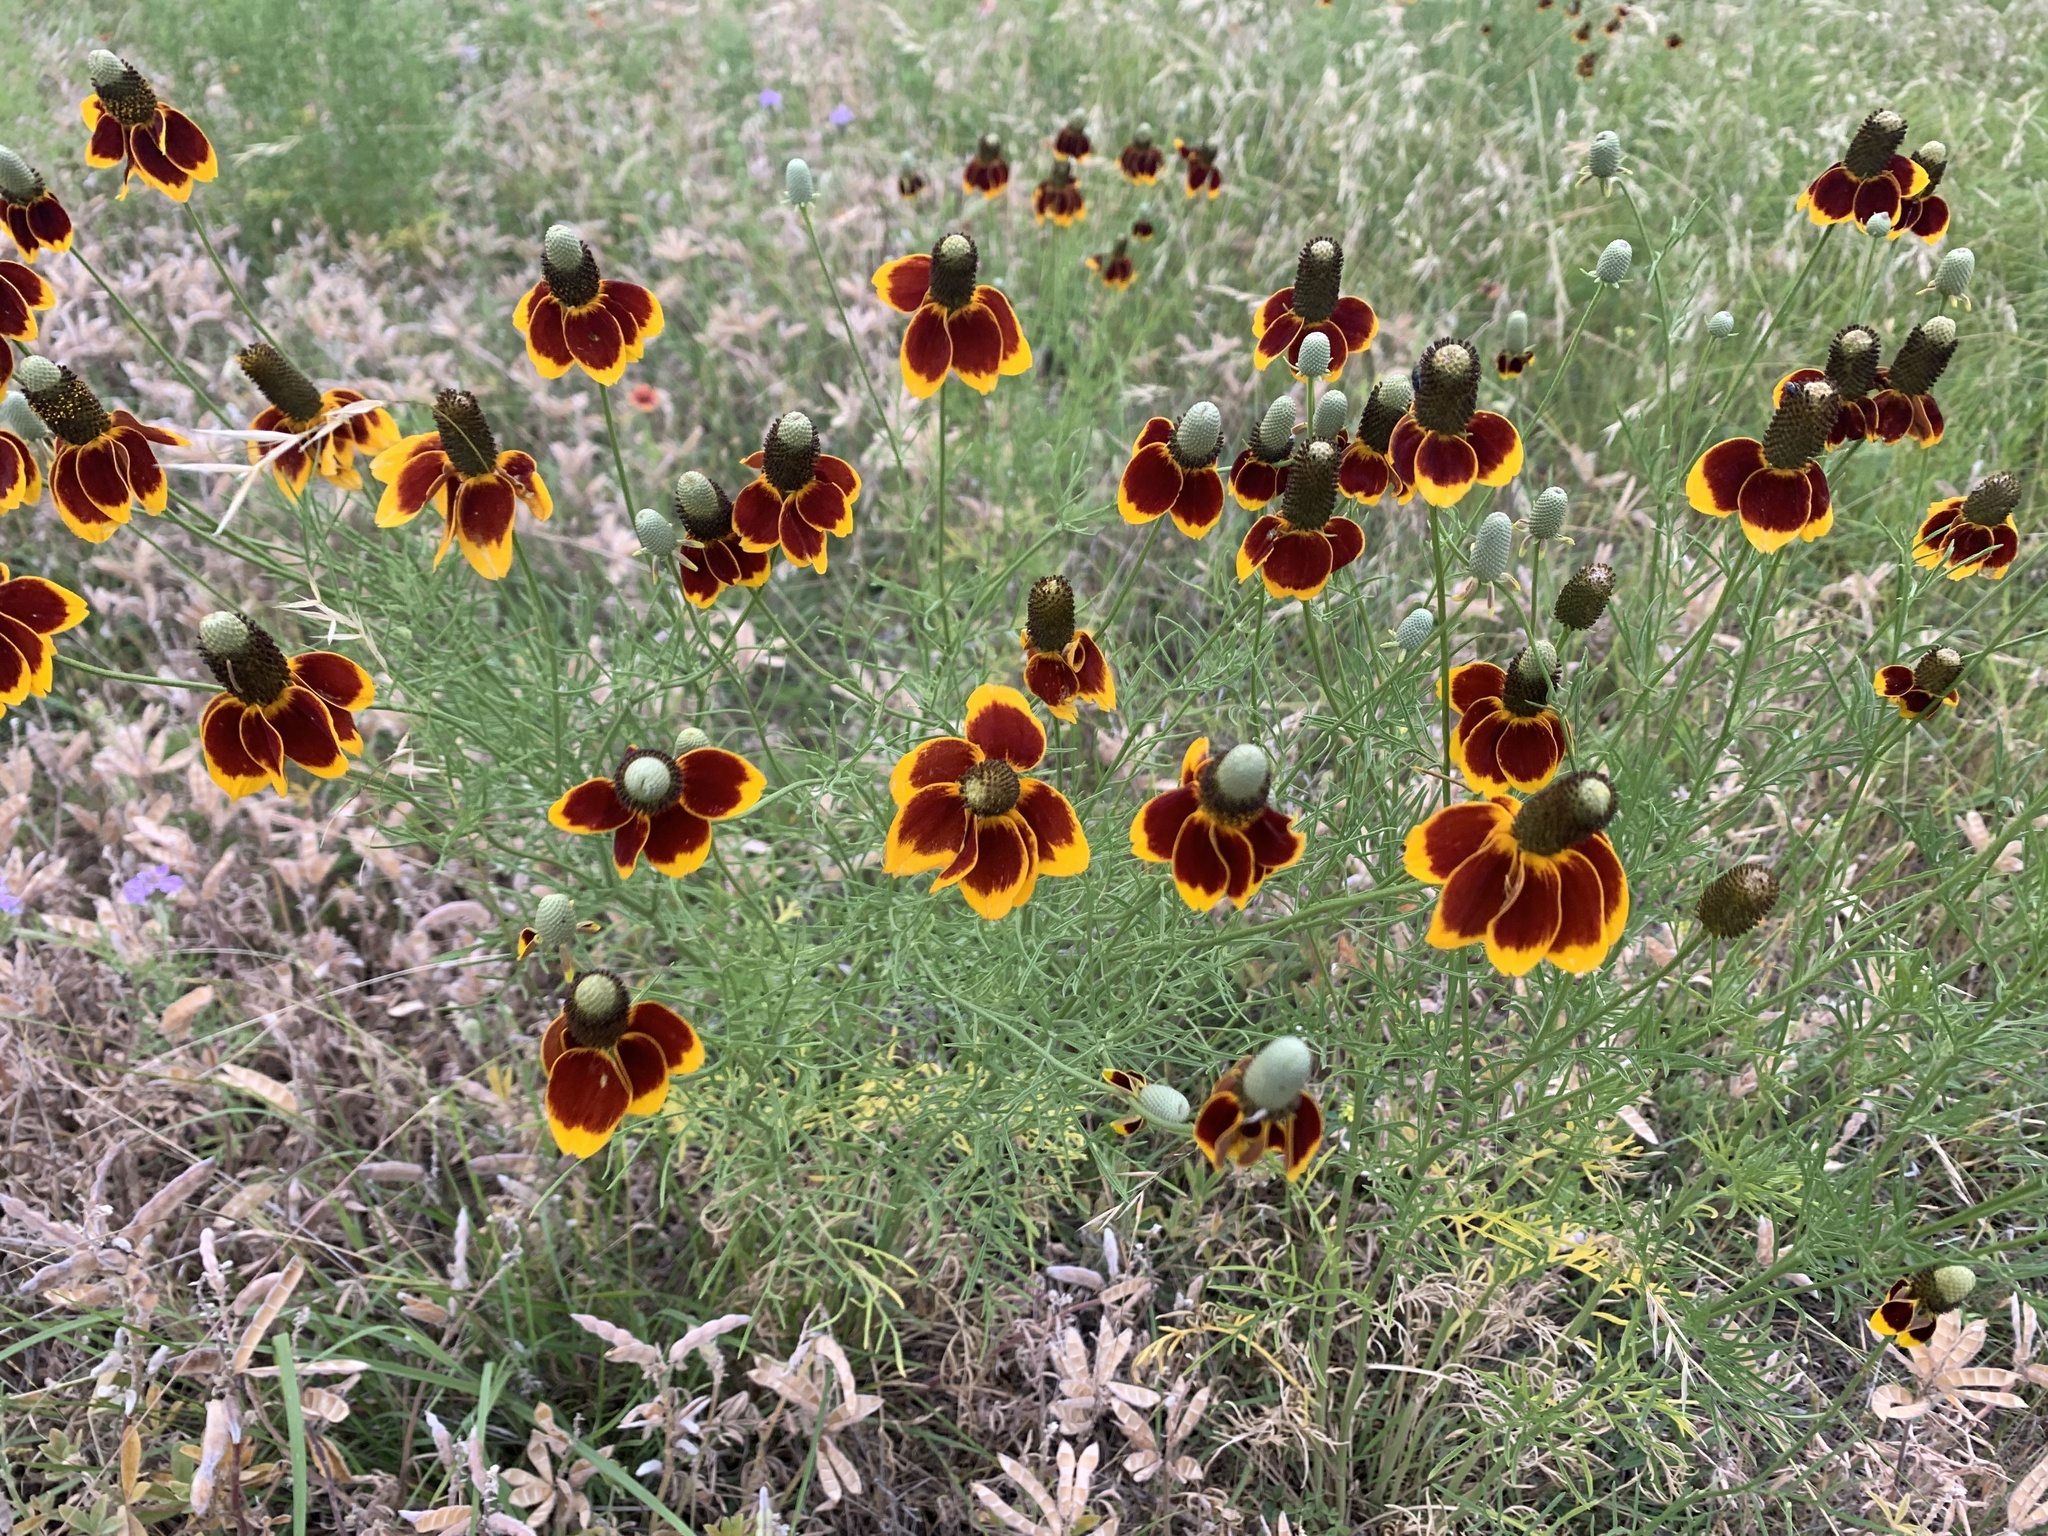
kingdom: Plantae
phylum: Tracheophyta
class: Magnoliopsida
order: Asterales
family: Asteraceae
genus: Ratibida
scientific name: Ratibida columnifera
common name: Prairie coneflower
